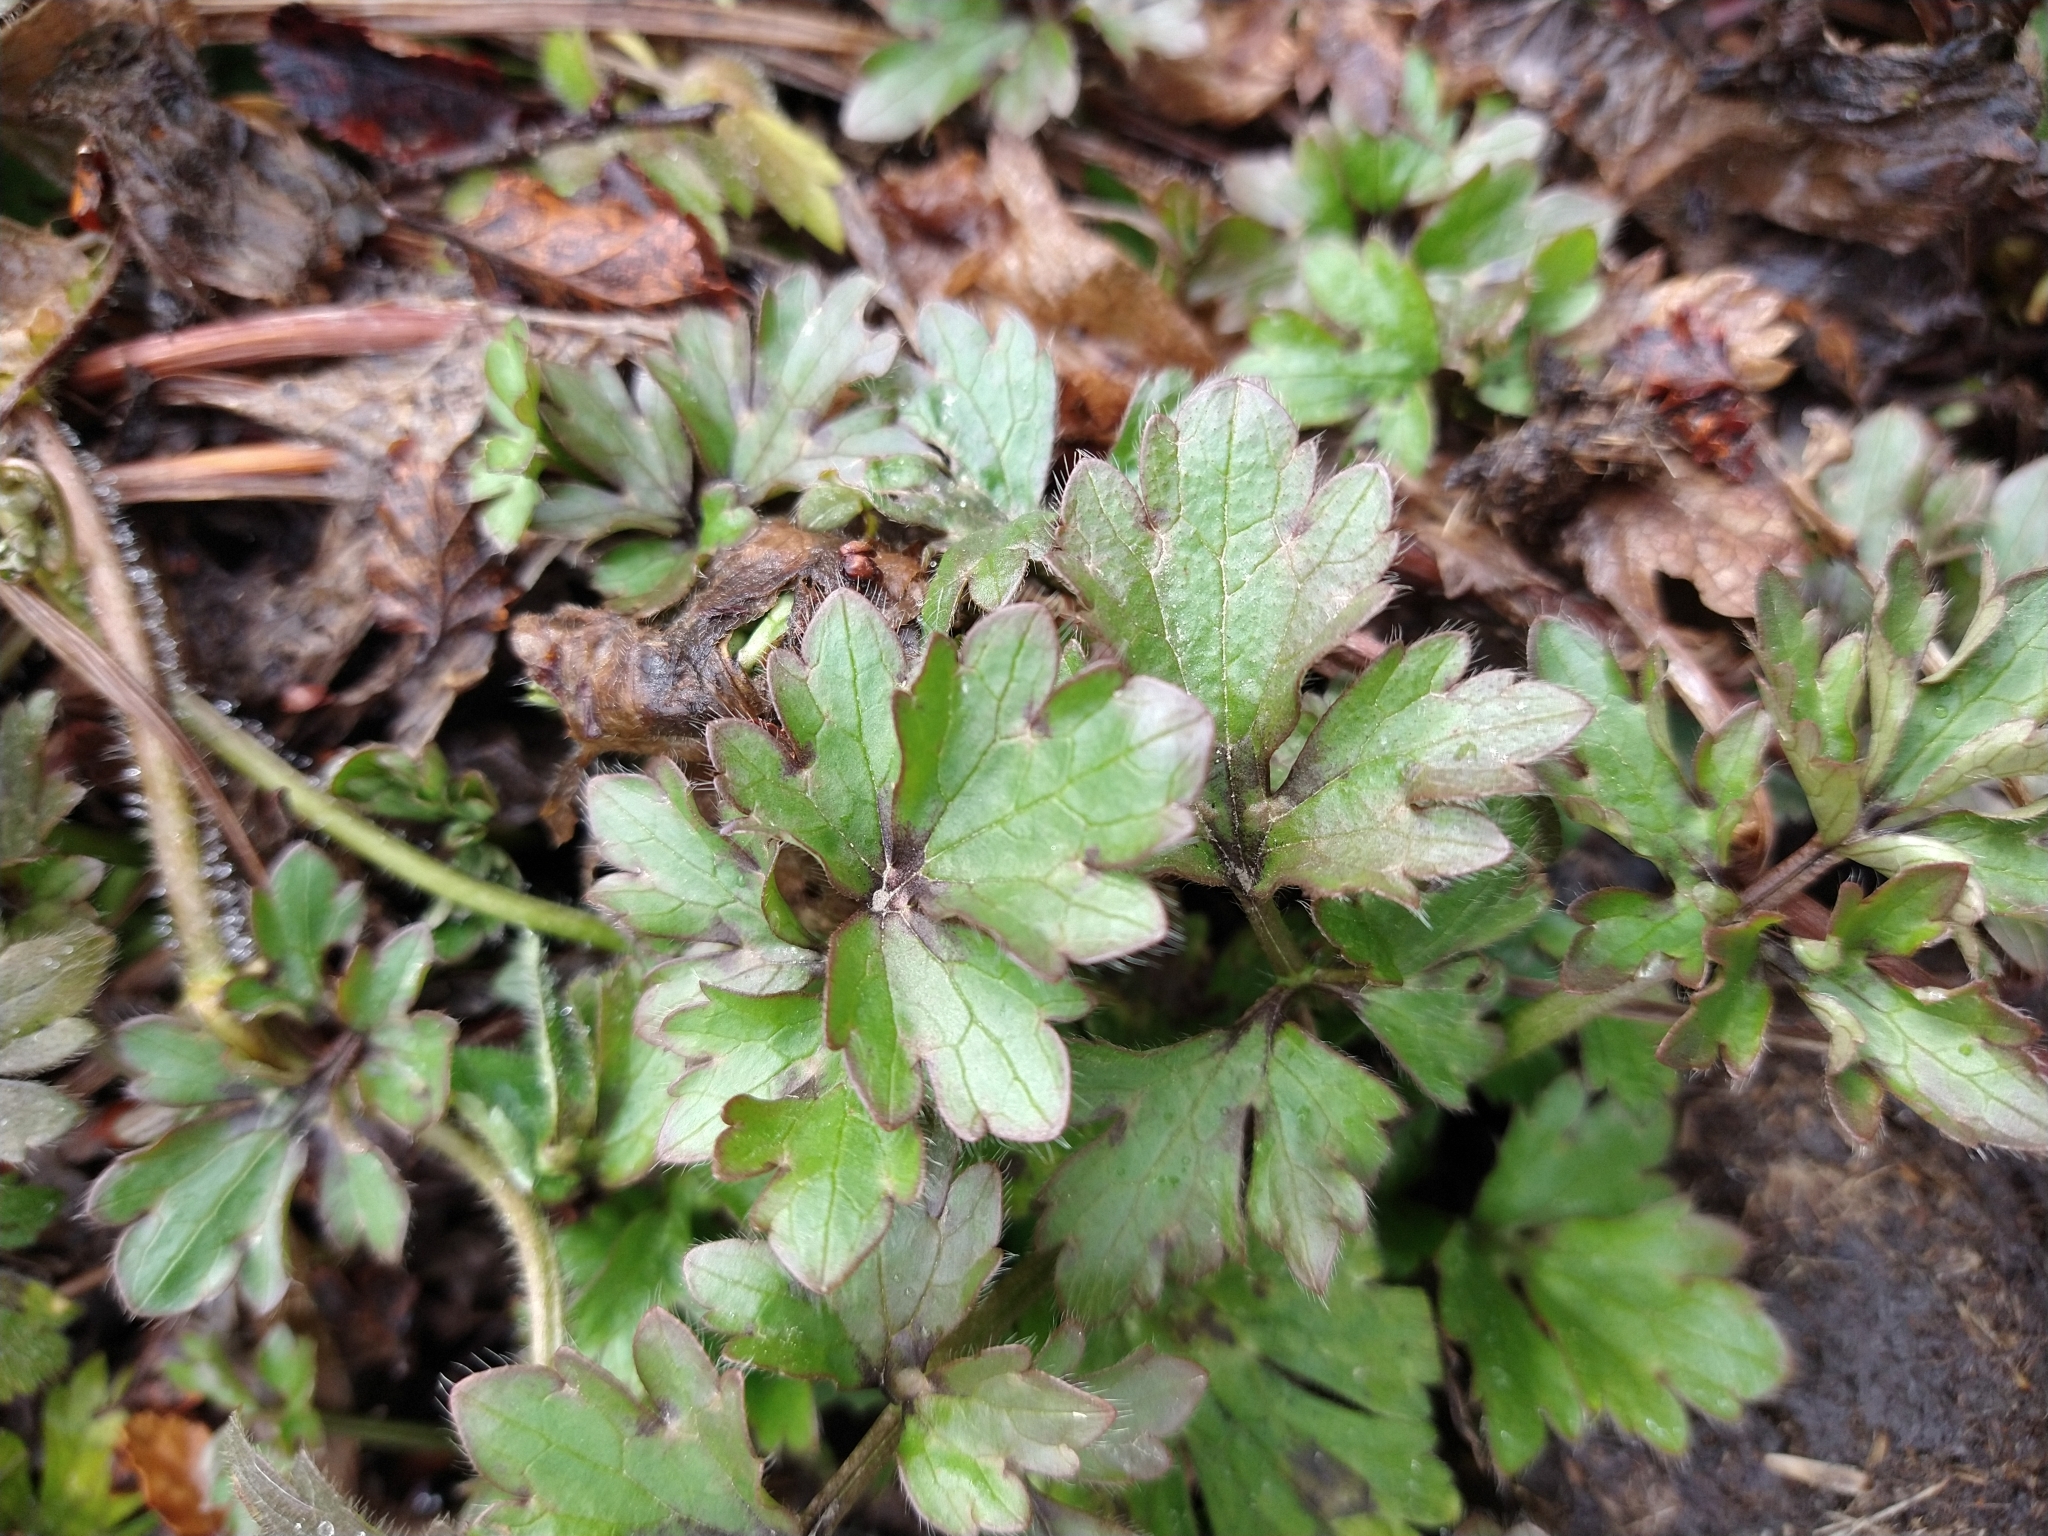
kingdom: Plantae
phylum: Tracheophyta
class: Magnoliopsida
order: Ranunculales
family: Ranunculaceae
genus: Ranunculus
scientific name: Ranunculus repens
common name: Creeping buttercup
